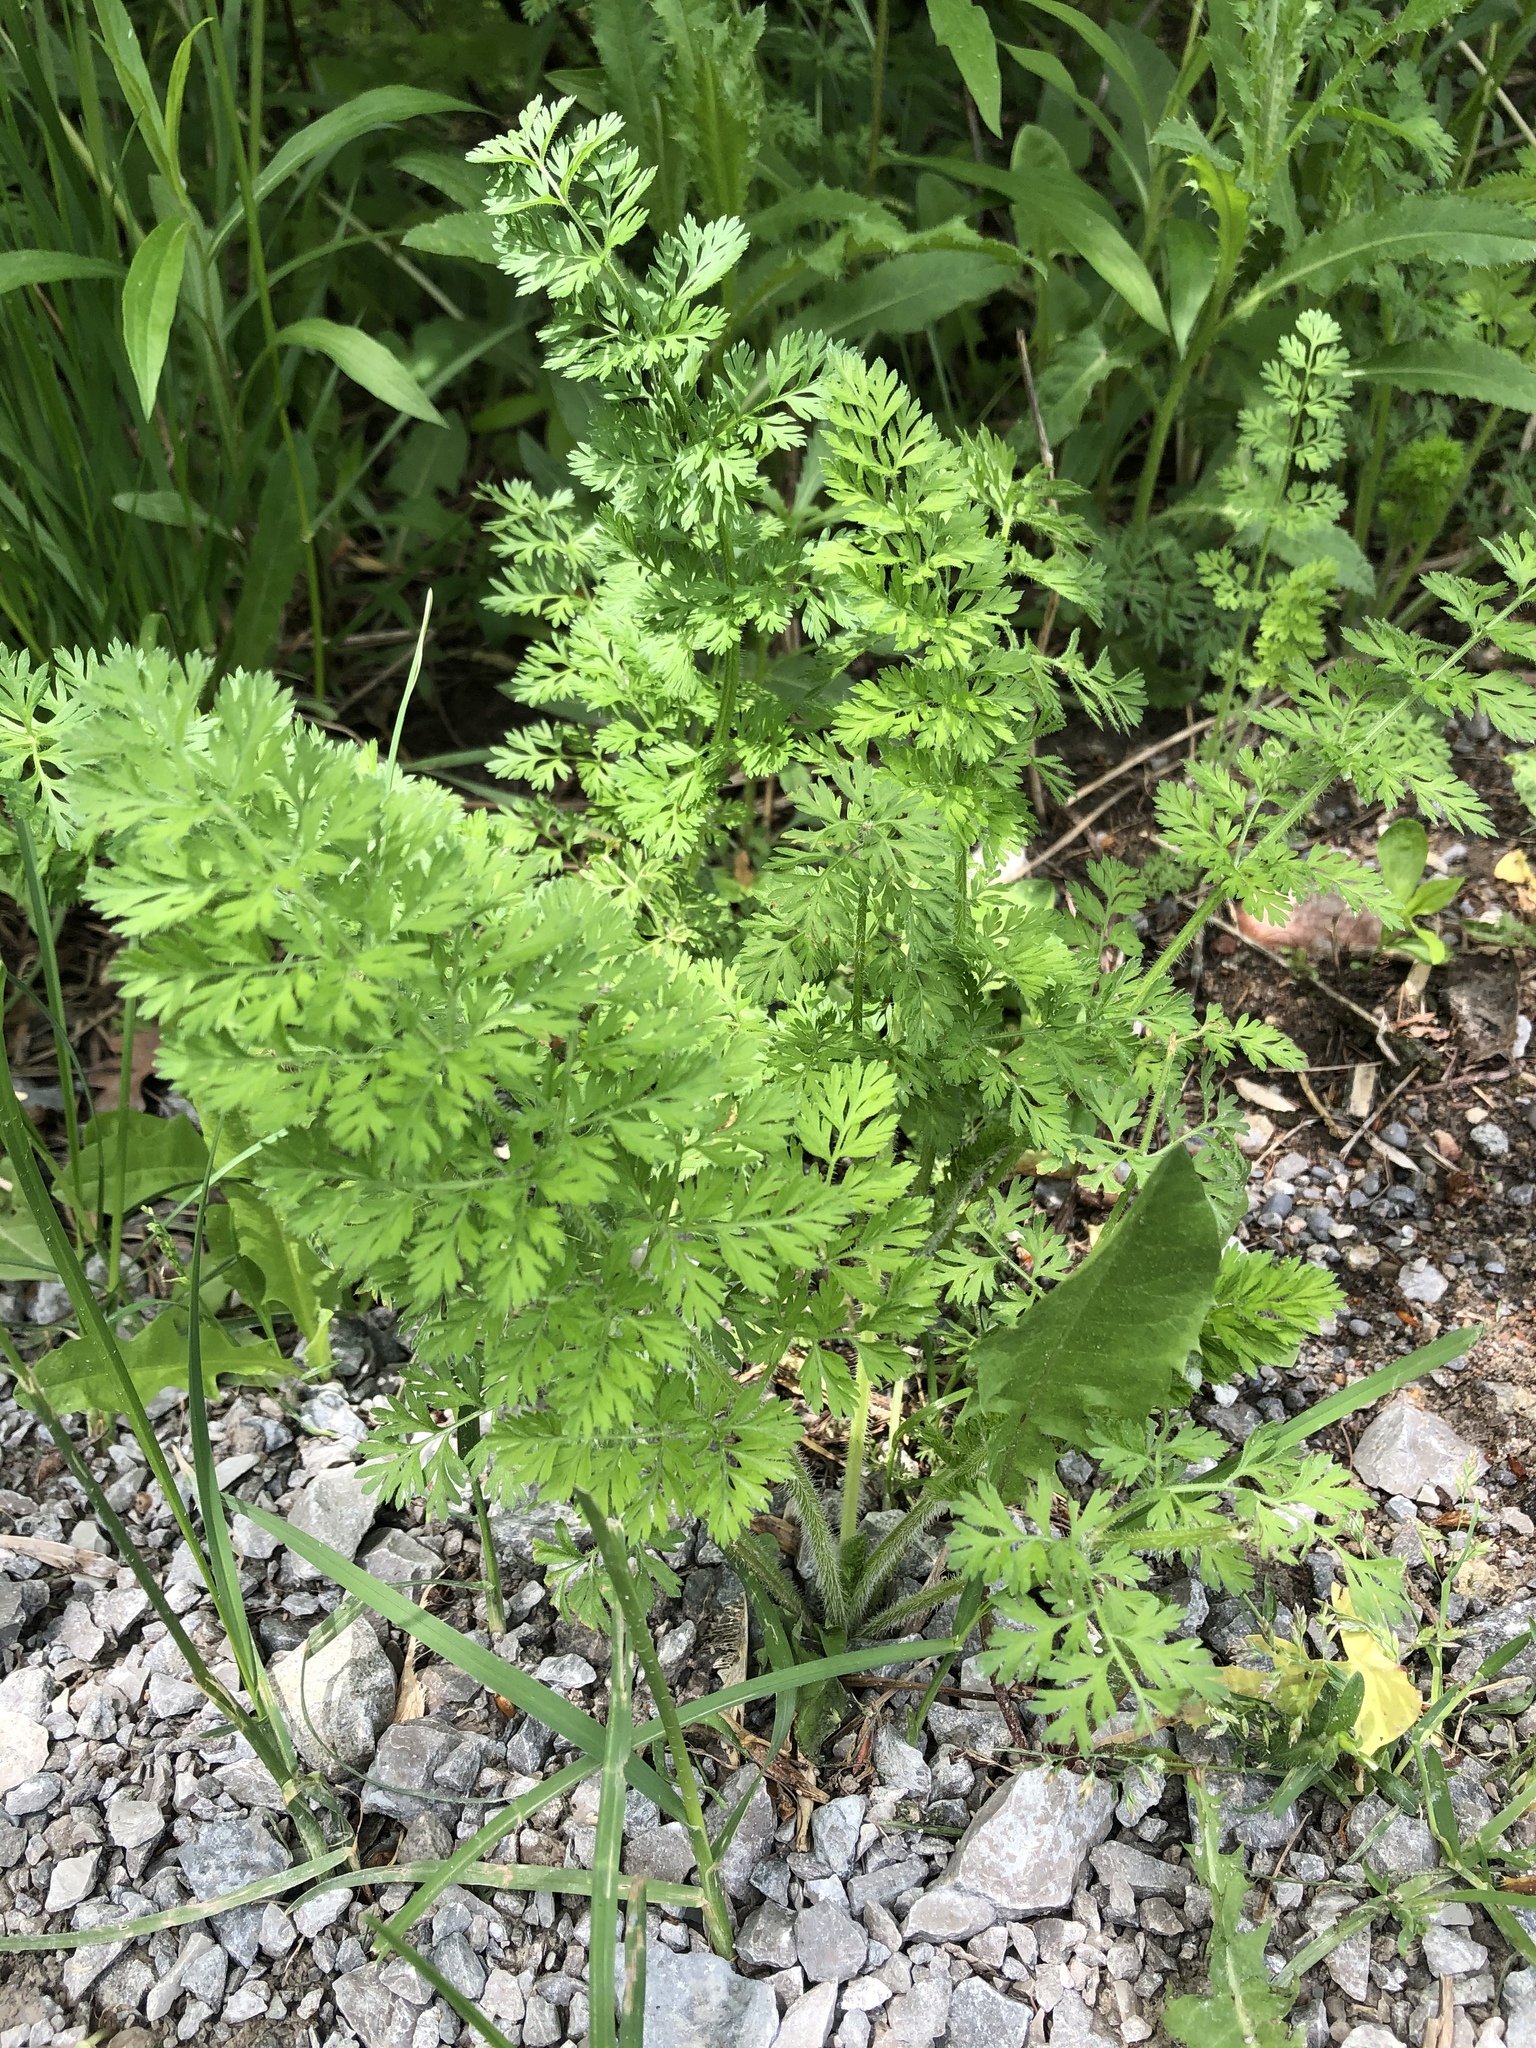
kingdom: Plantae
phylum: Tracheophyta
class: Magnoliopsida
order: Apiales
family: Apiaceae
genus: Daucus
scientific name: Daucus carota
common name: Wild carrot
